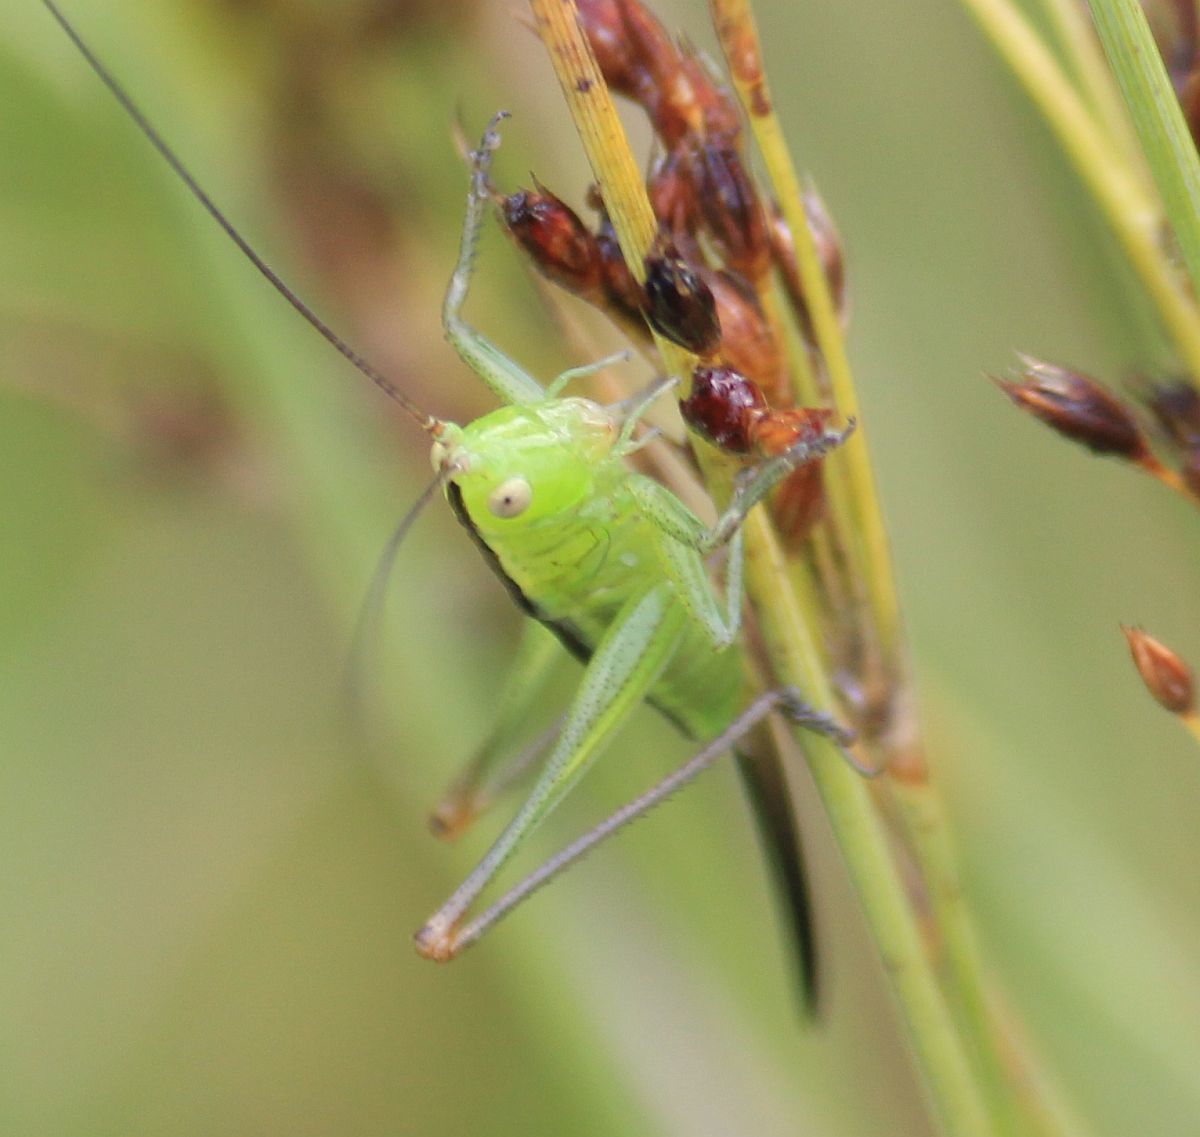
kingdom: Animalia
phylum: Arthropoda
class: Insecta
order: Orthoptera
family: Tettigoniidae
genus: Conocephalus
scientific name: Conocephalus fuscus
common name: Long-winged conehead
